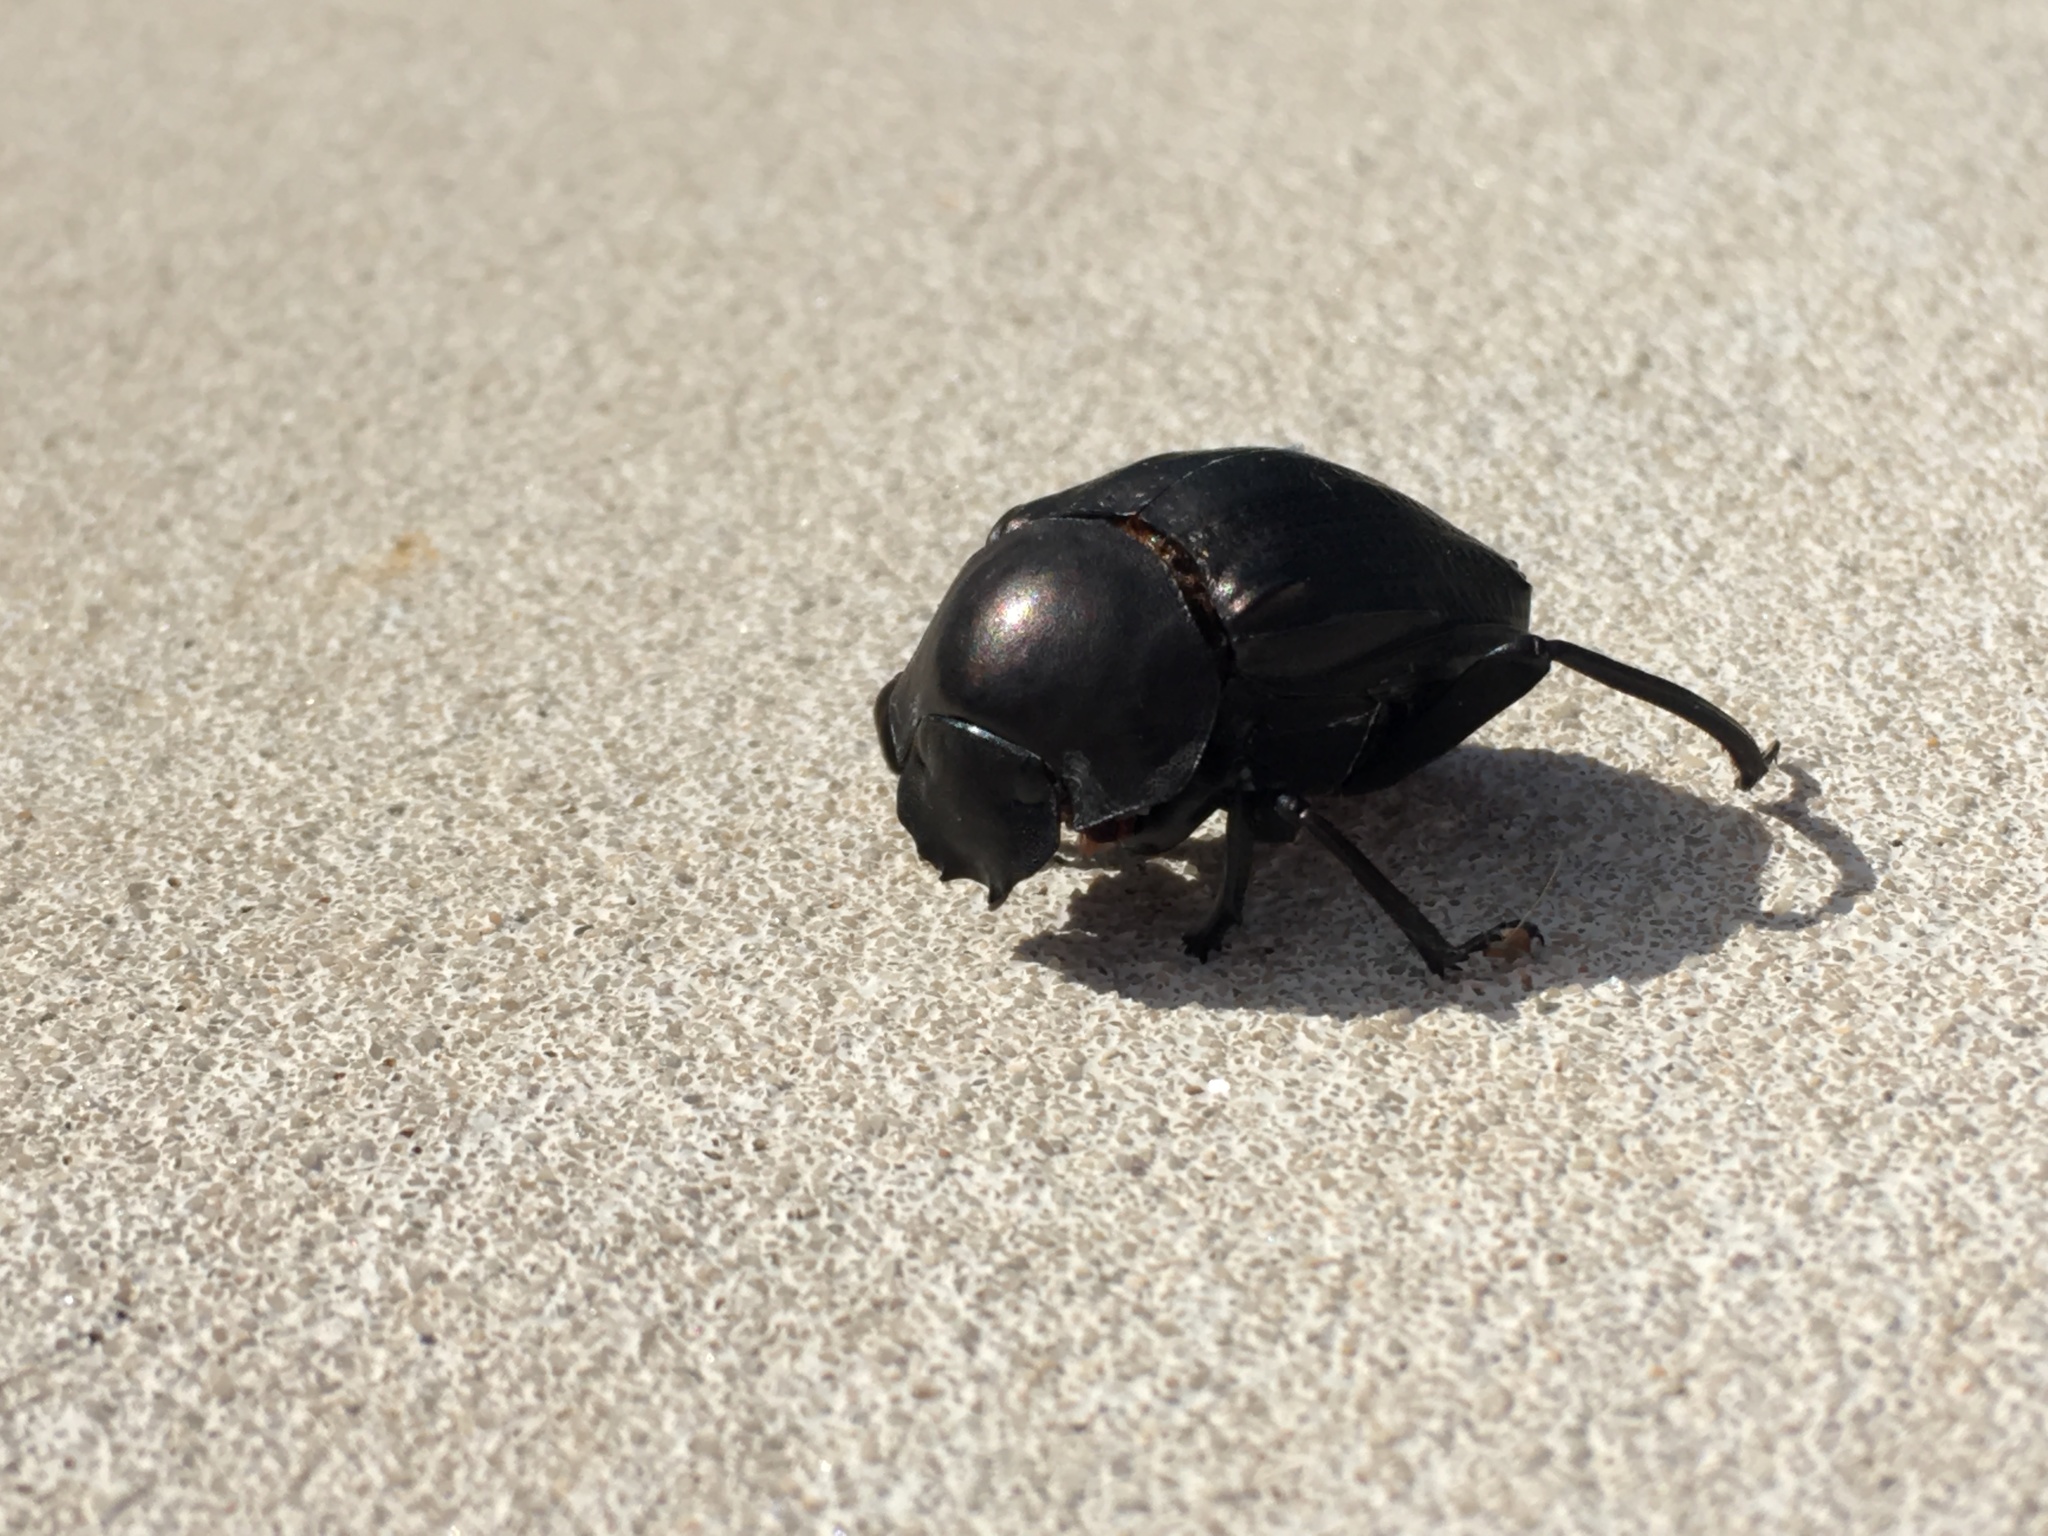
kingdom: Animalia
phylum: Arthropoda
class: Insecta
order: Coleoptera
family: Scarabaeidae
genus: Deltochilum
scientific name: Deltochilum gibbosum
